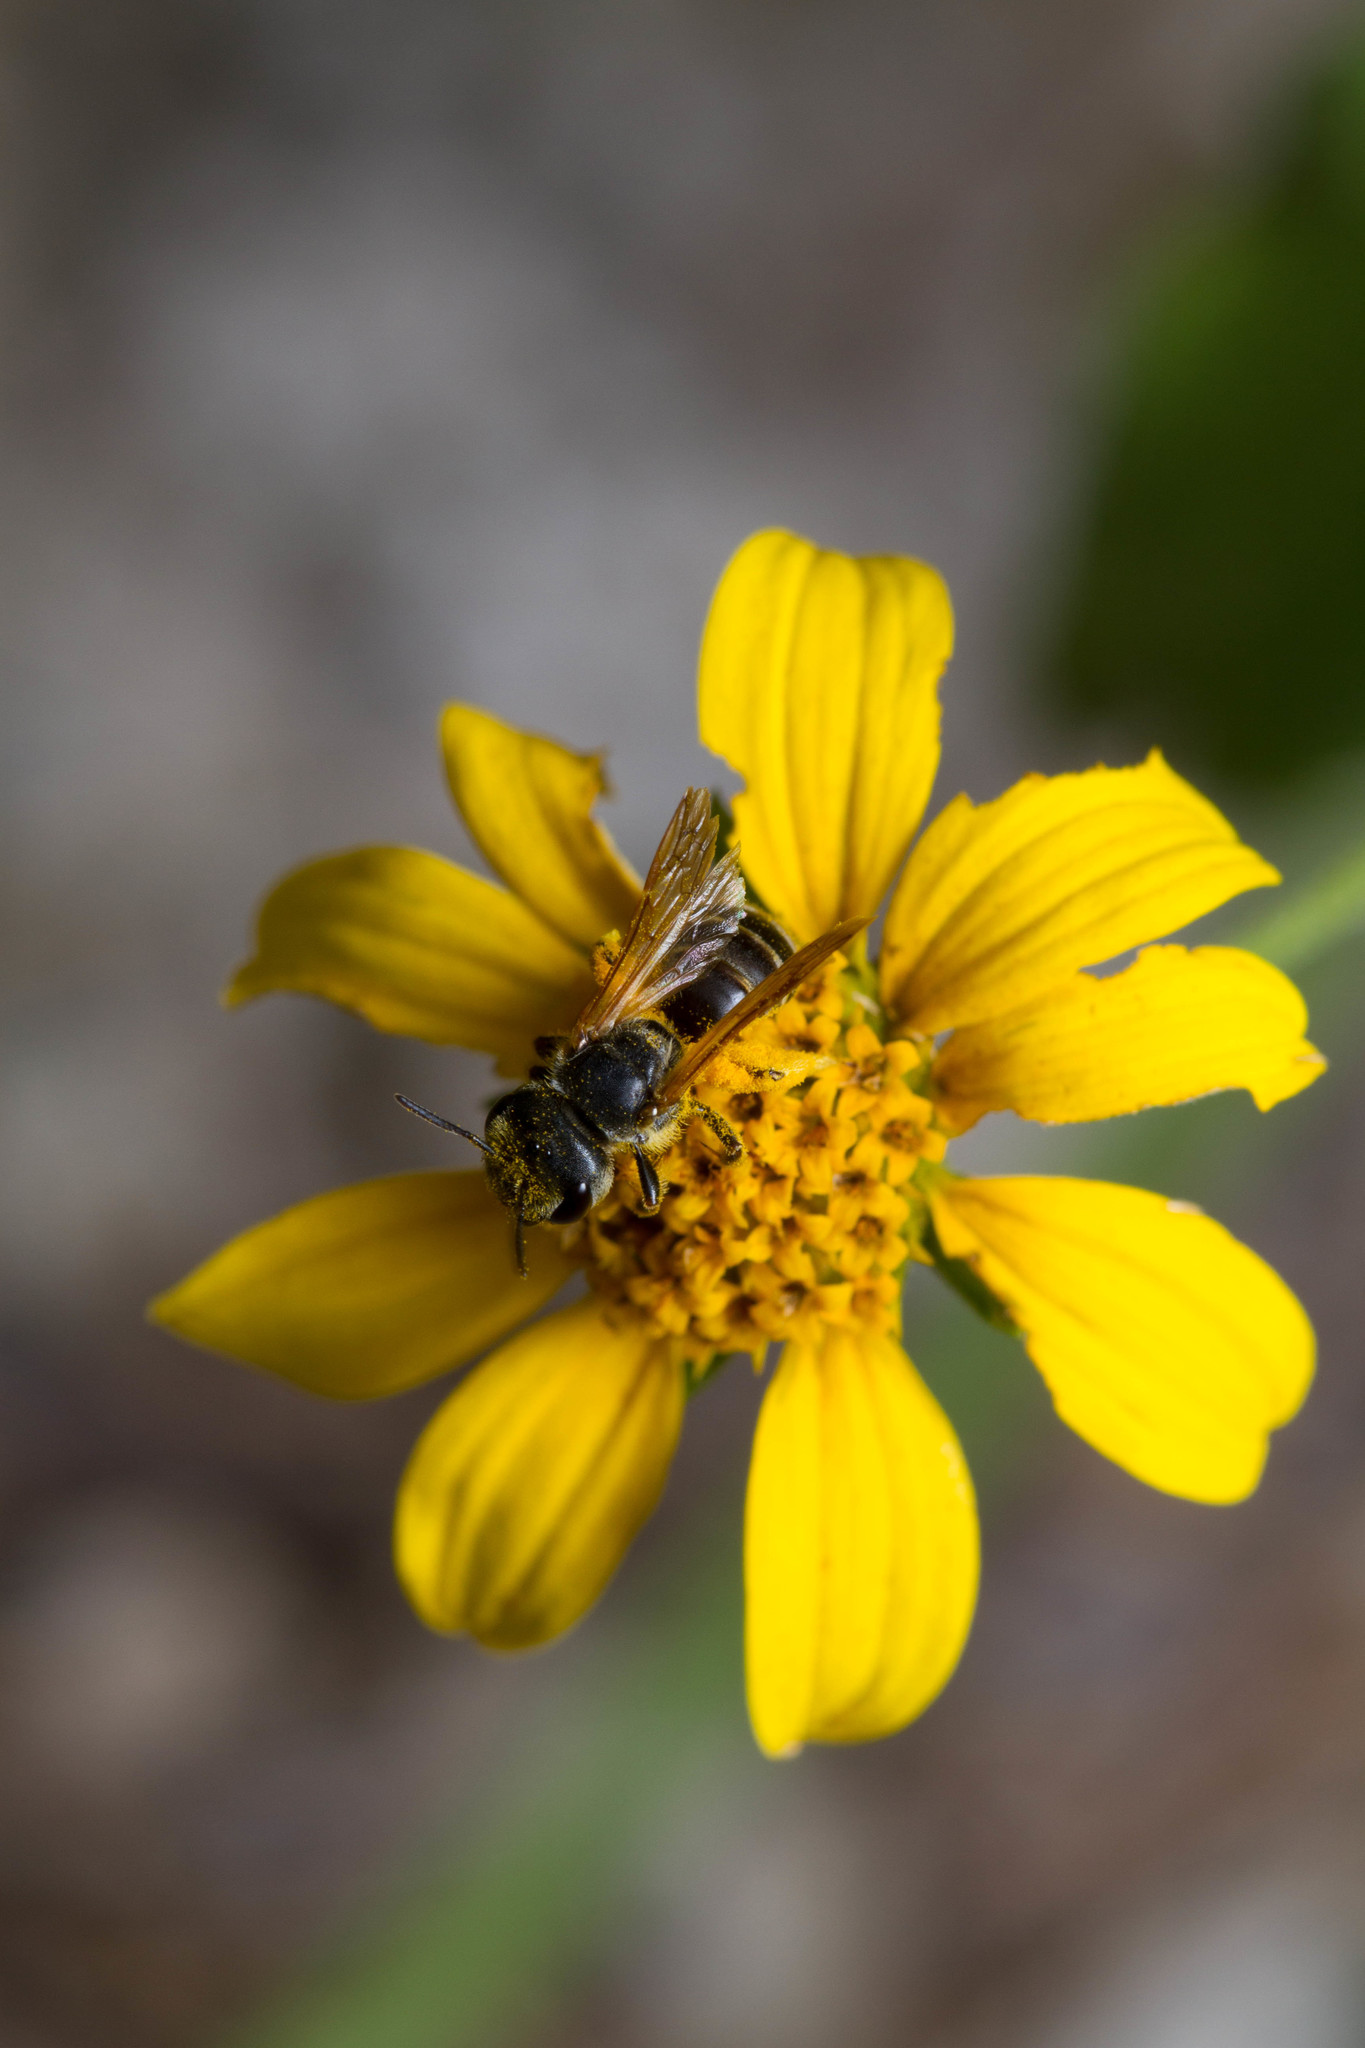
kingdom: Animalia
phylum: Arthropoda
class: Insecta
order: Hymenoptera
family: Halictidae
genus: Halictus
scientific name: Halictus ligatus
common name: Ligated furrow bee
